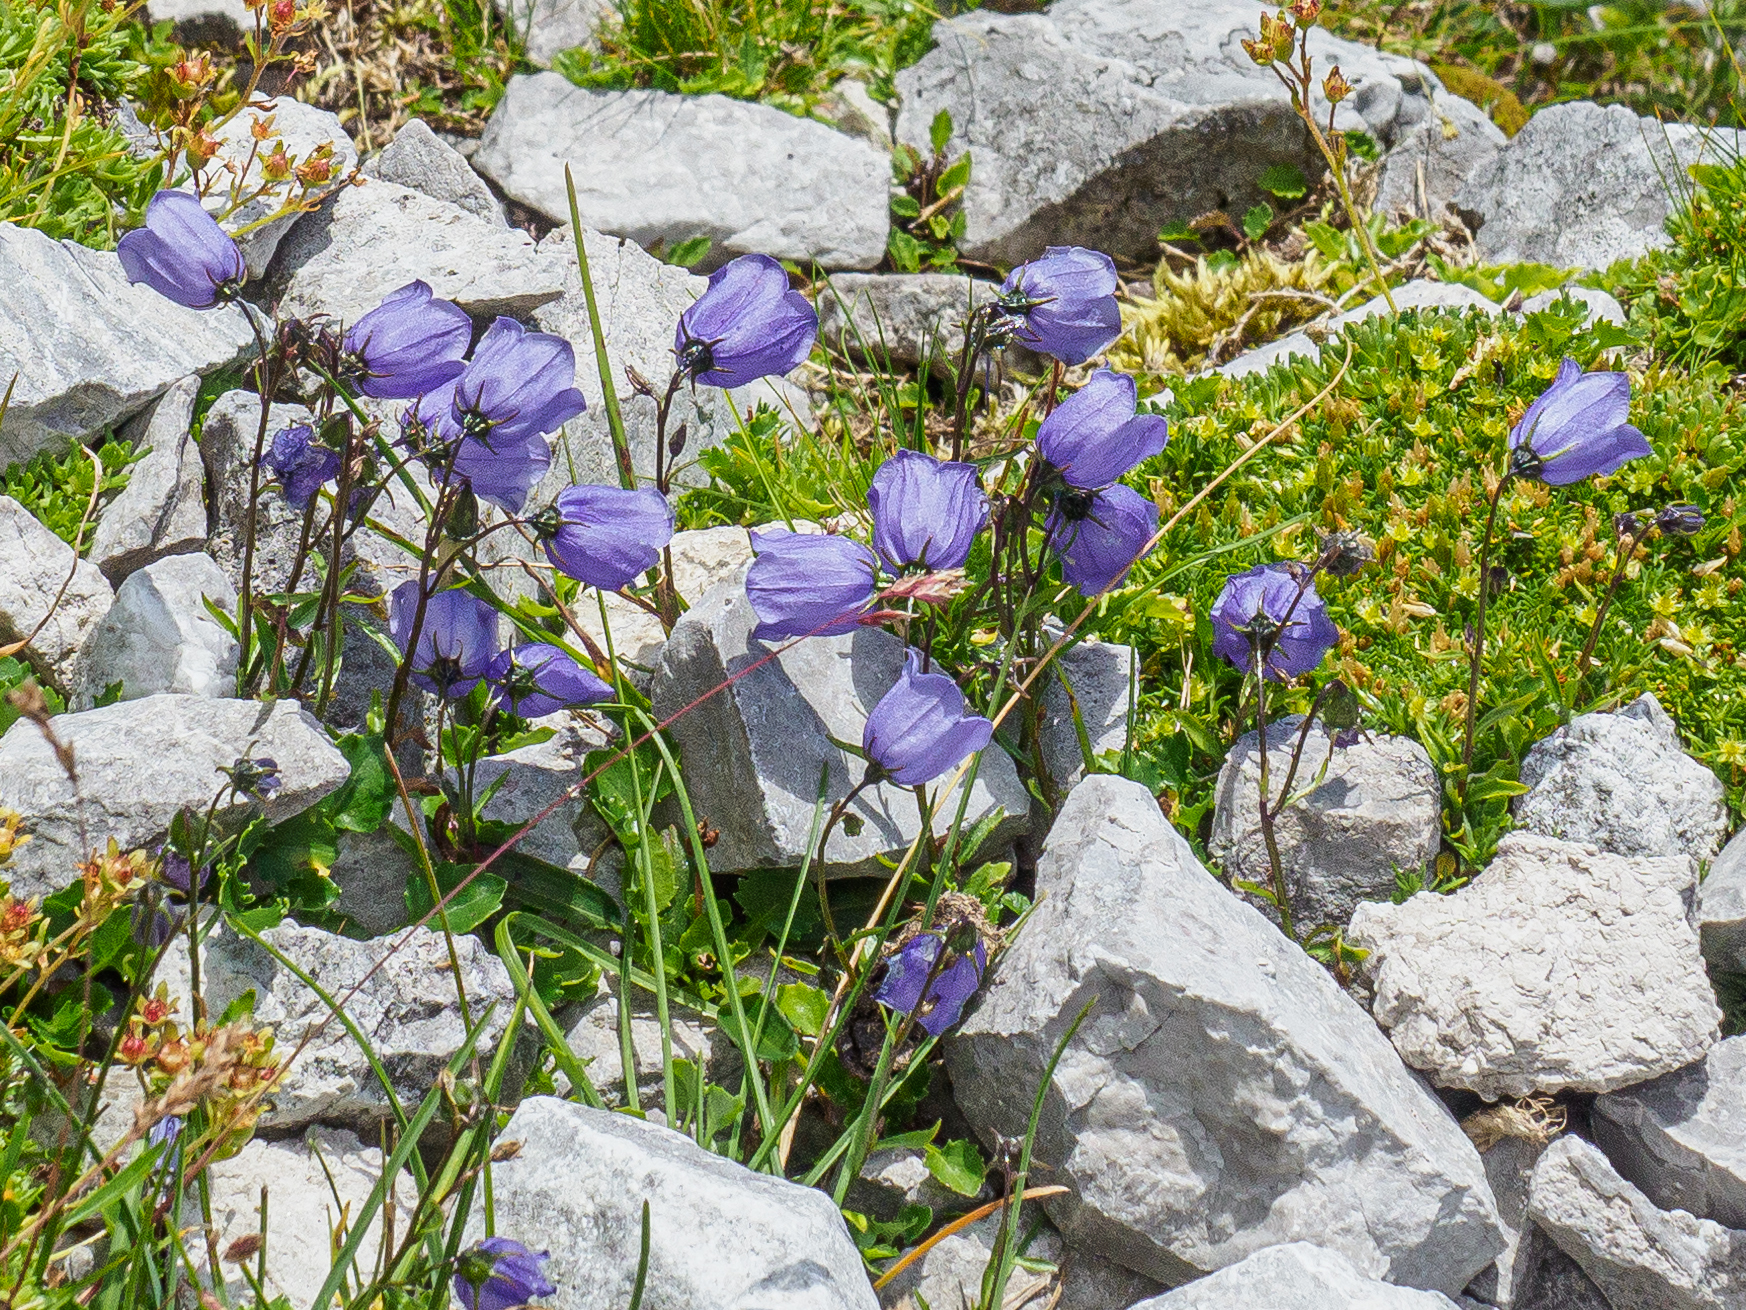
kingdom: Plantae
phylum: Tracheophyta
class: Magnoliopsida
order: Asterales
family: Campanulaceae
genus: Campanula
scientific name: Campanula cochleariifolia
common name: Fairies'-thimbles
